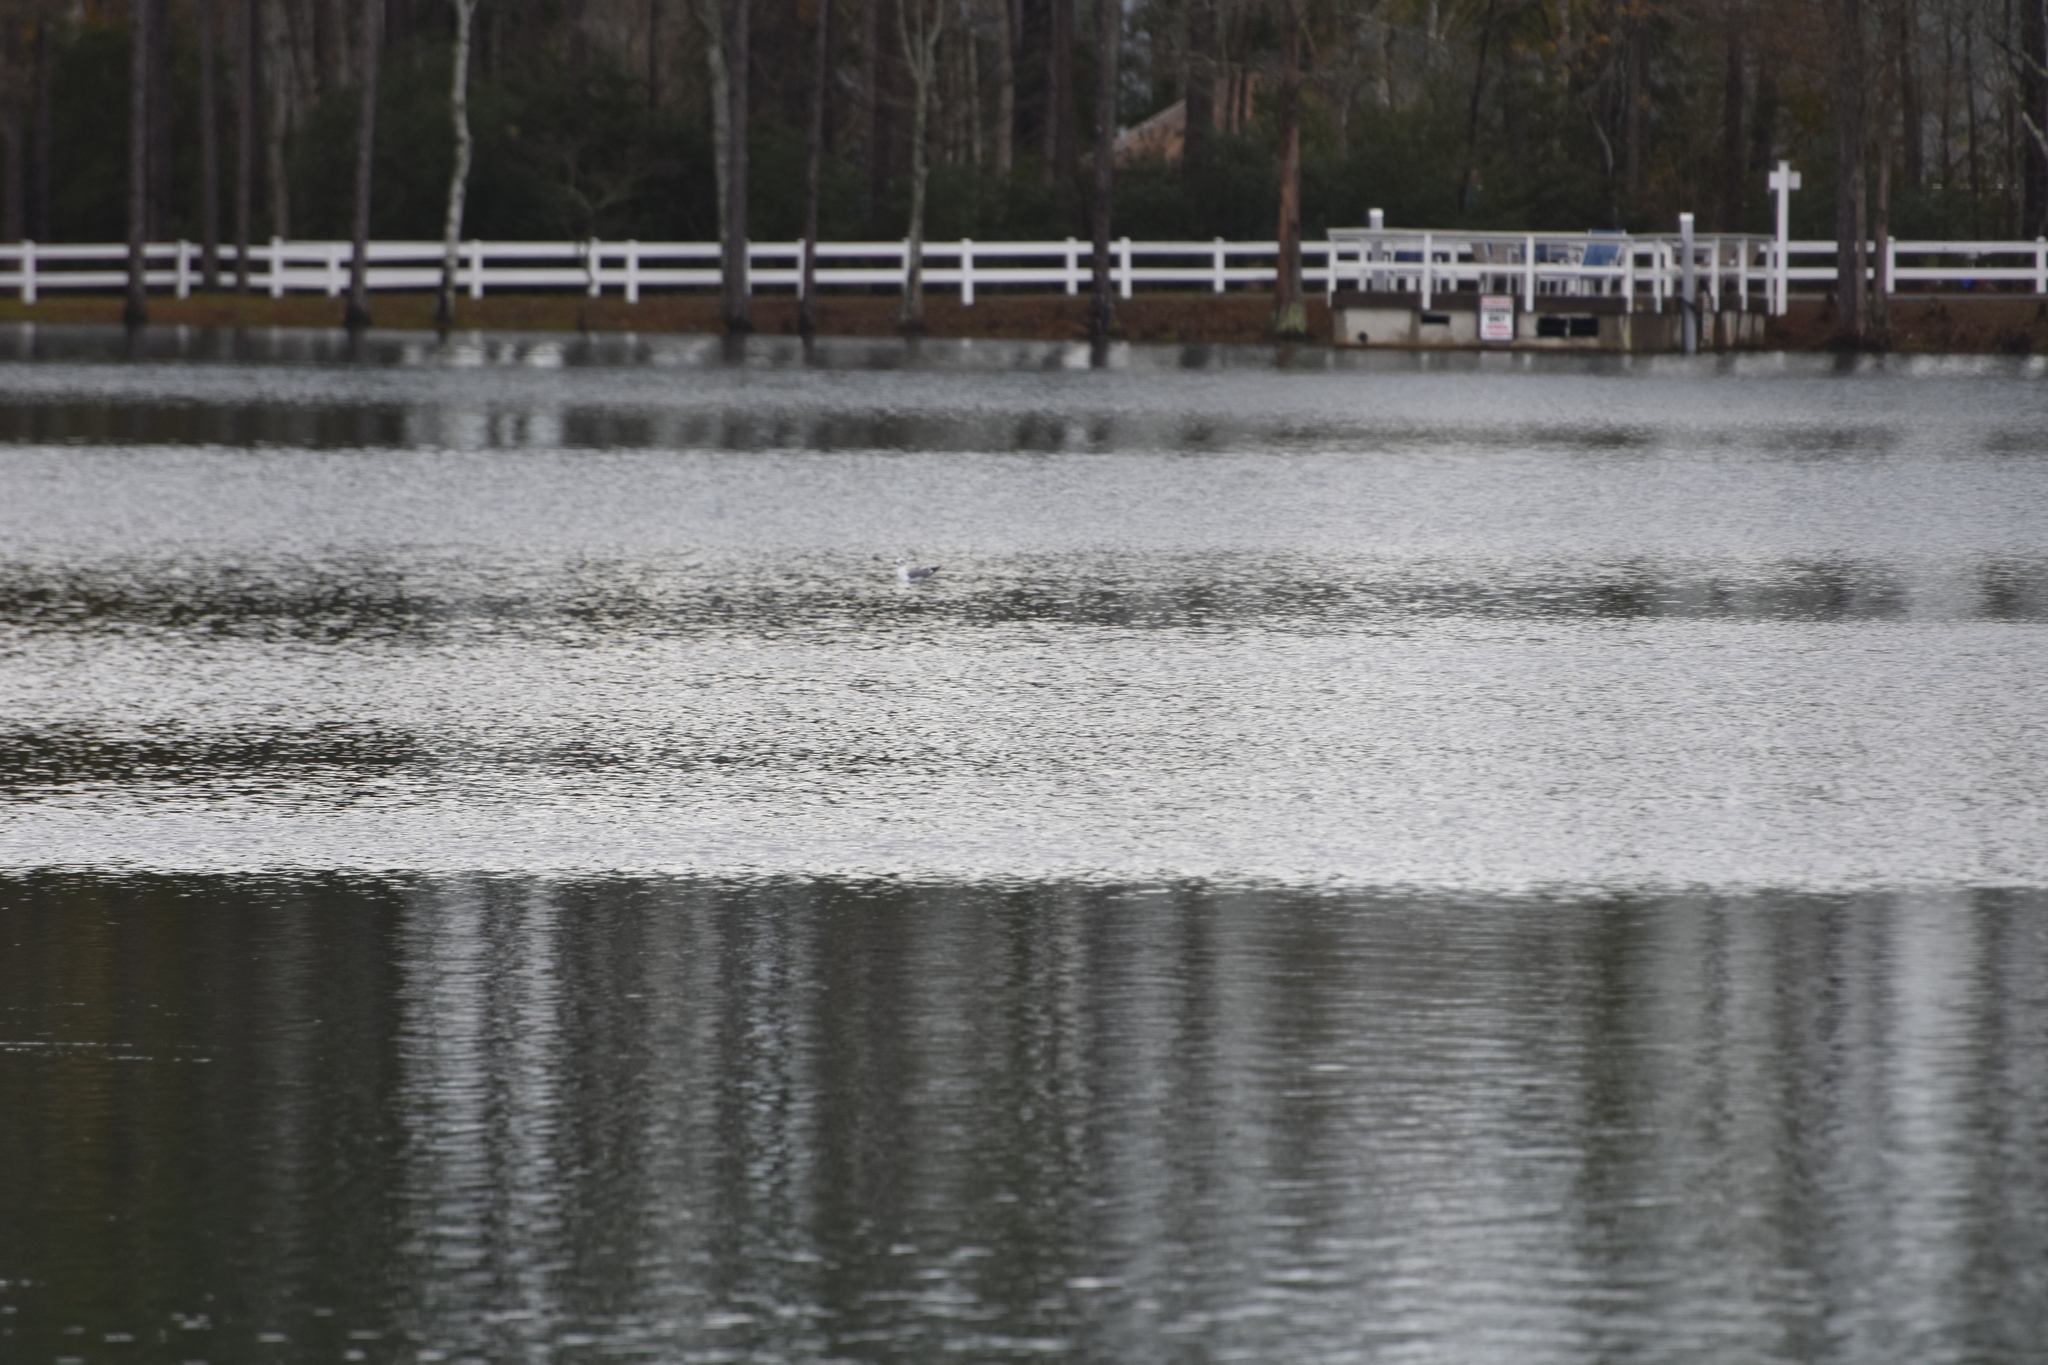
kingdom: Animalia
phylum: Chordata
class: Aves
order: Charadriiformes
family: Laridae
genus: Leucophaeus
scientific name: Leucophaeus atricilla
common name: Laughing gull
